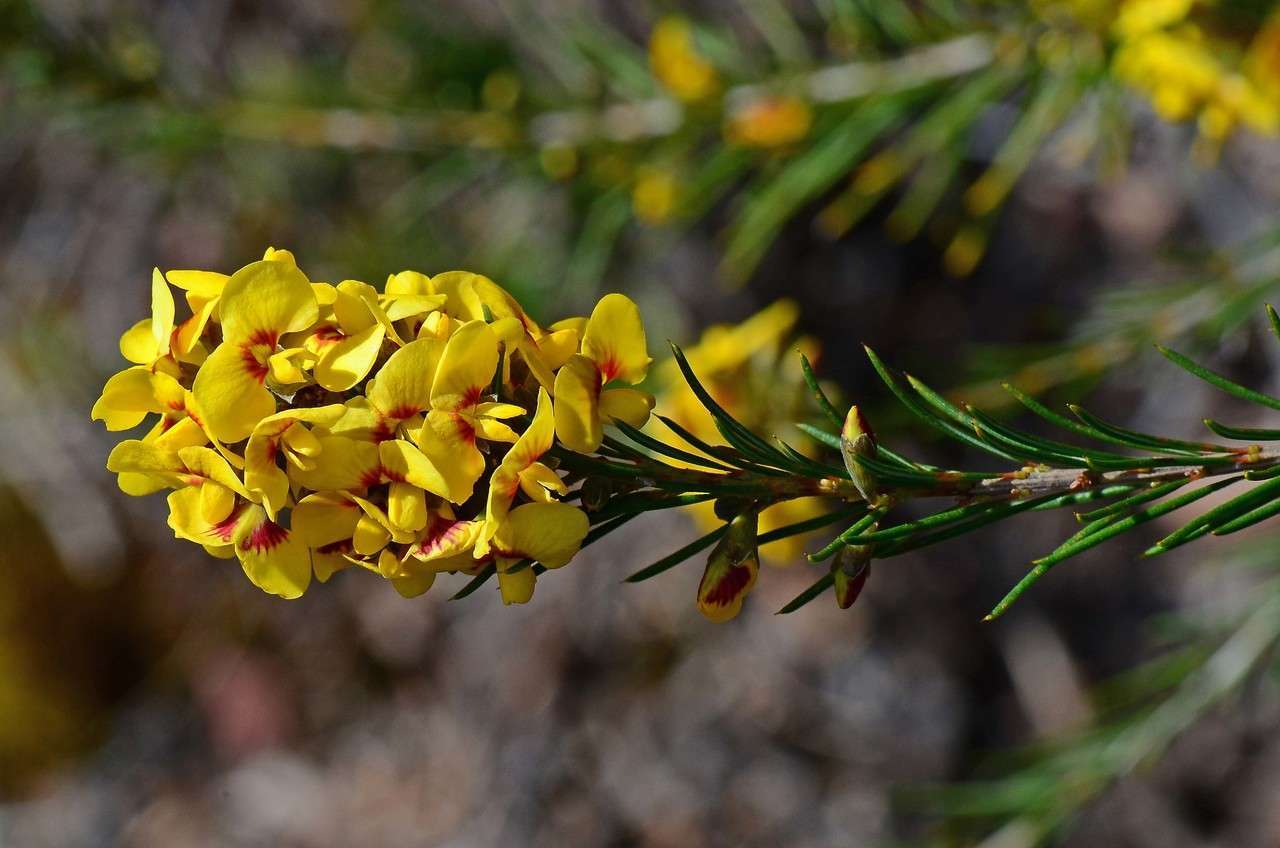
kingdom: Plantae
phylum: Tracheophyta
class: Magnoliopsida
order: Fabales
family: Fabaceae
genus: Dillwynia
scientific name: Dillwynia oreodoxa
